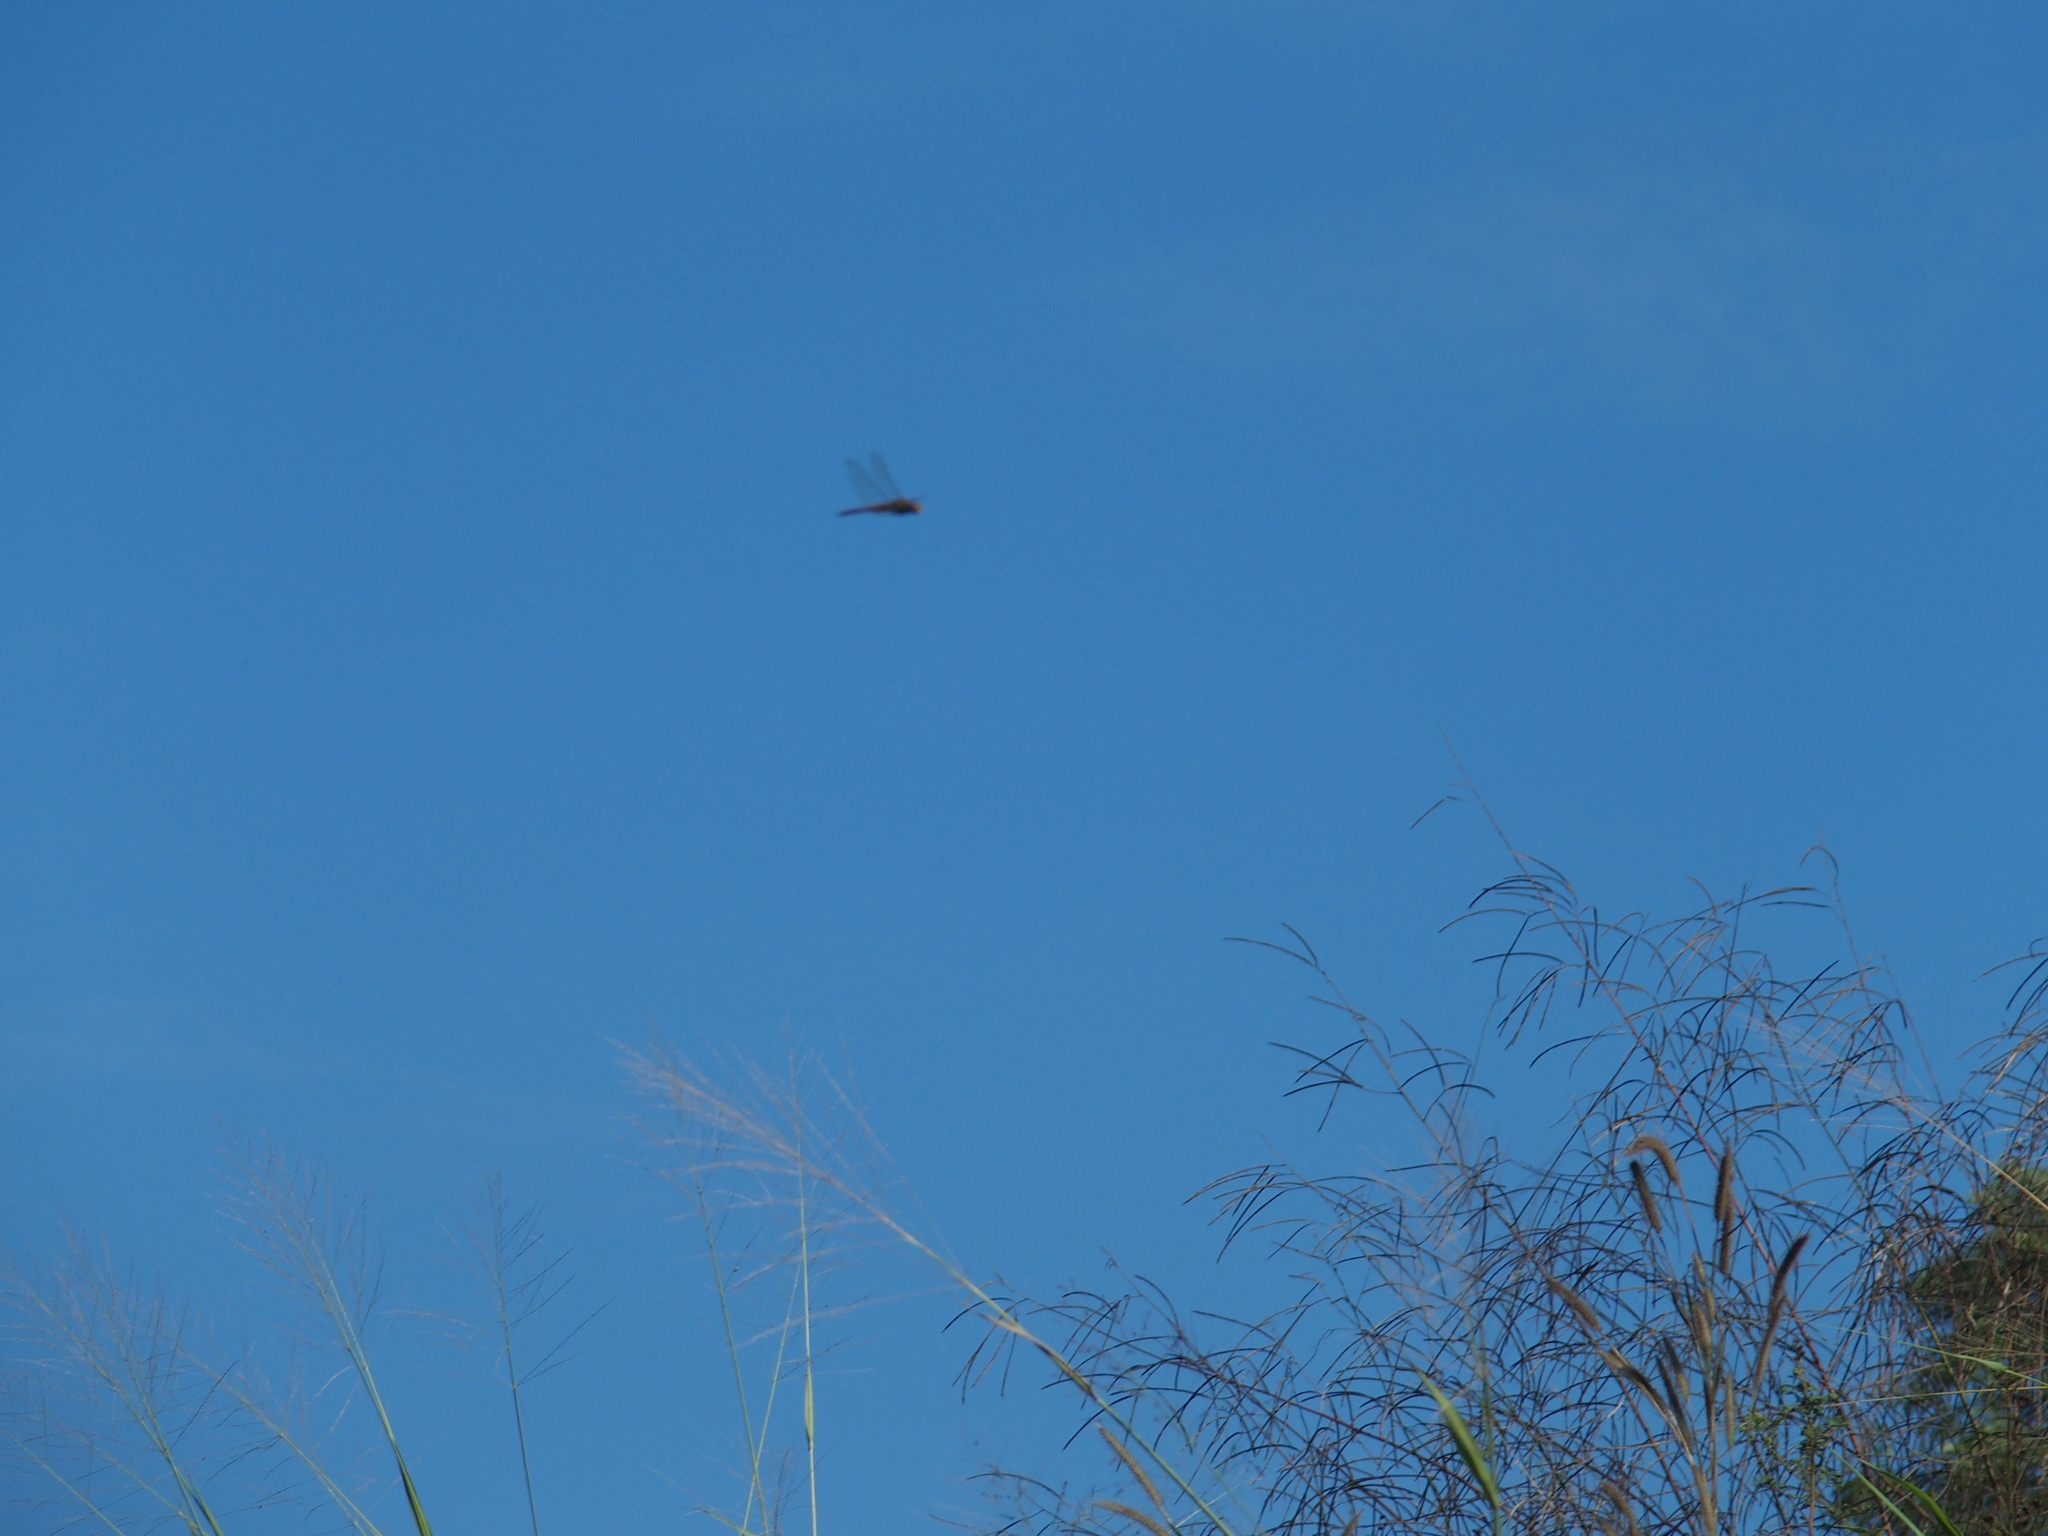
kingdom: Animalia
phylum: Arthropoda
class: Insecta
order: Odonata
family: Libellulidae
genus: Pantala
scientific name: Pantala flavescens
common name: Wandering glider
